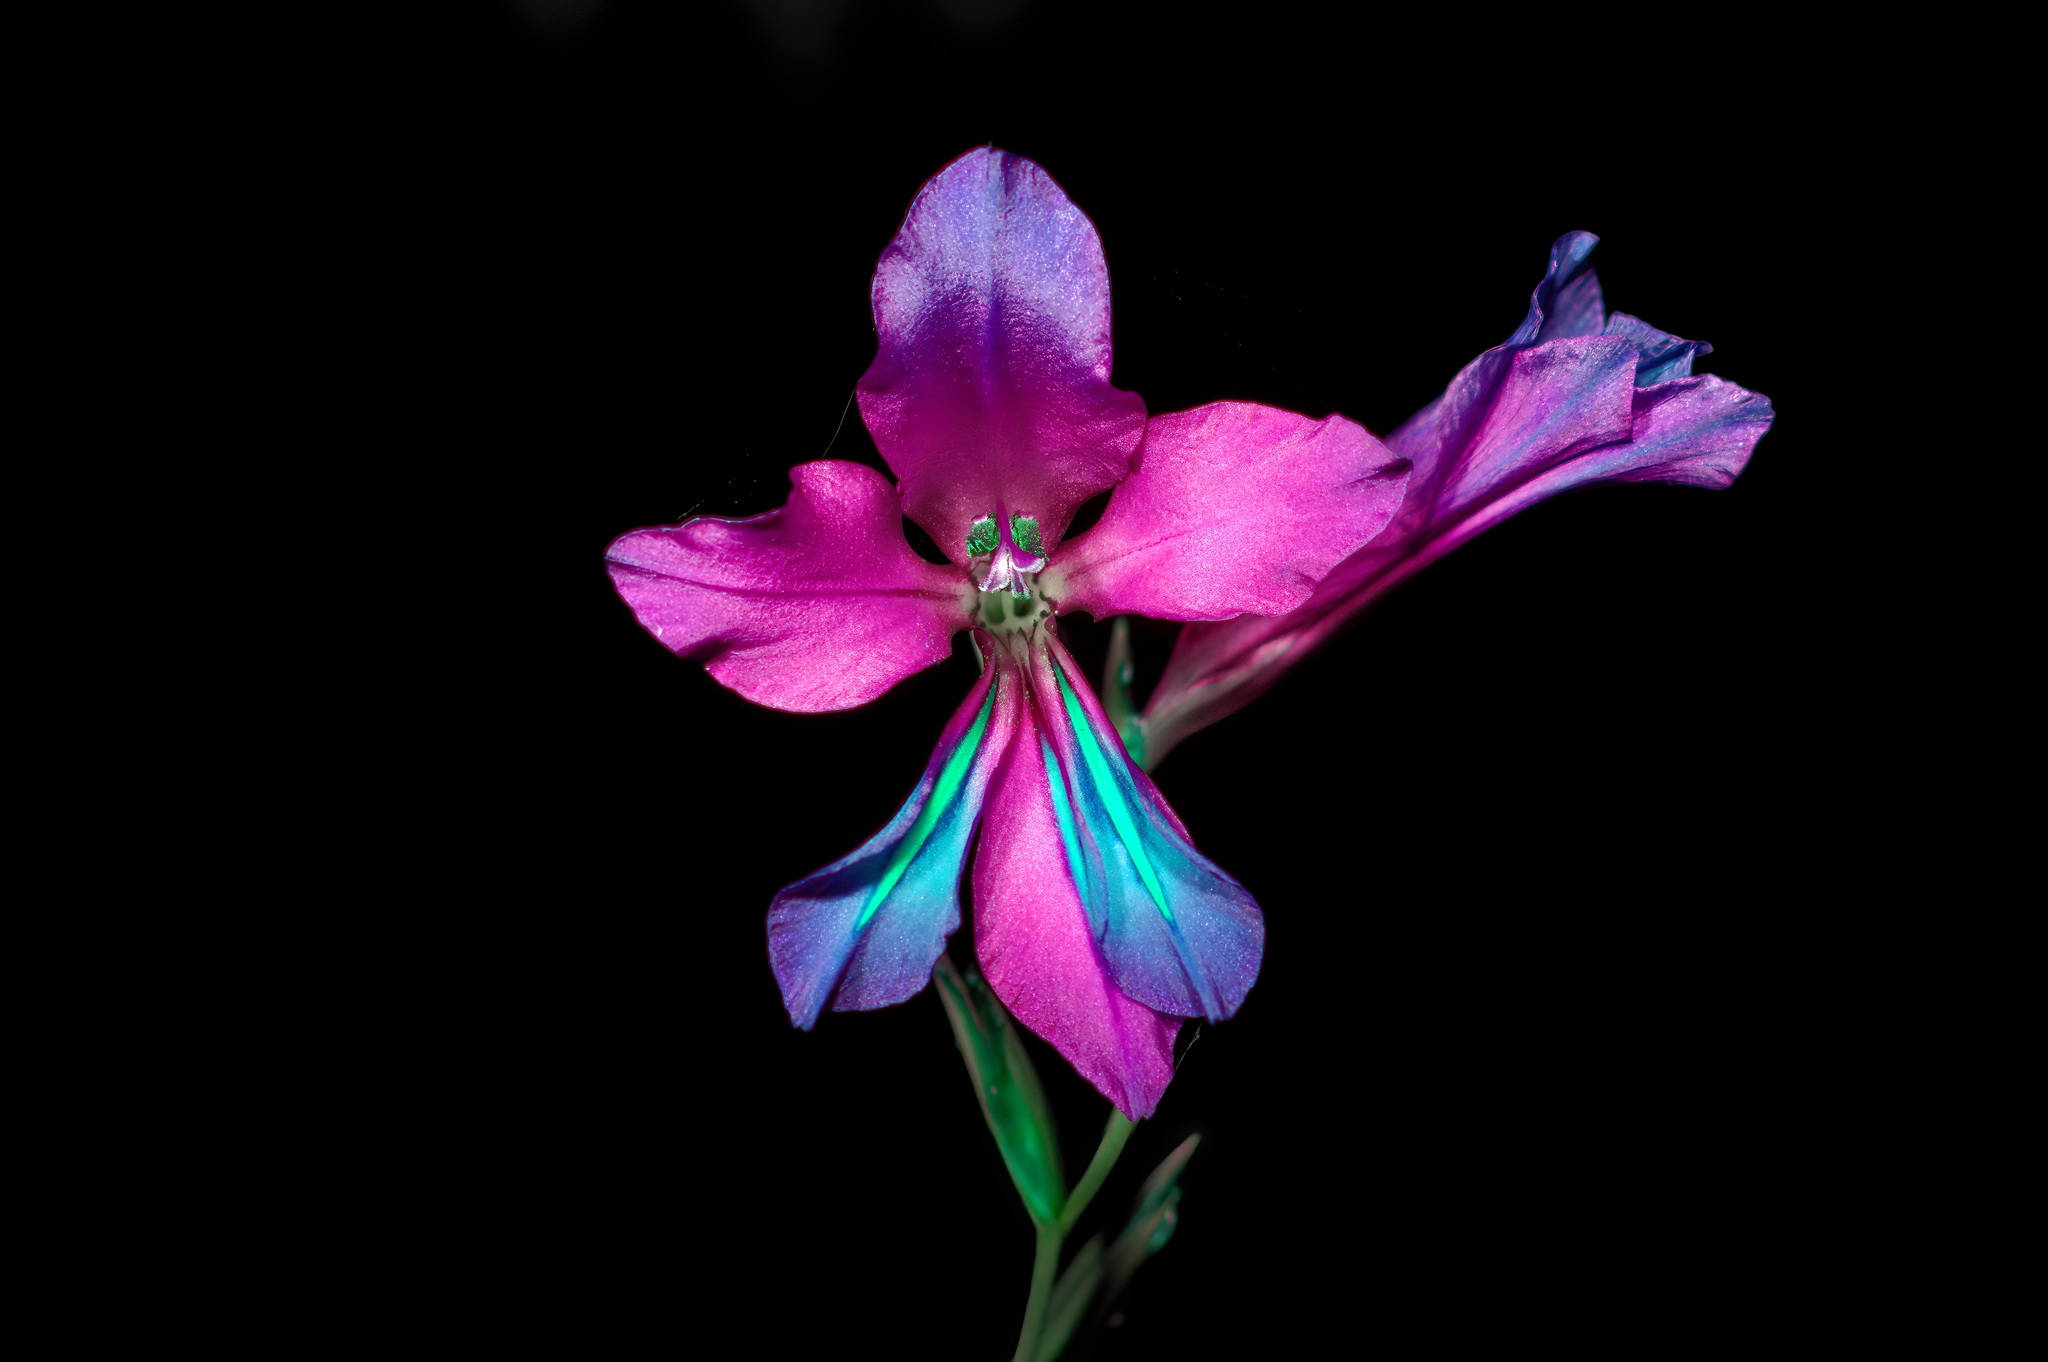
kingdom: Plantae
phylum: Tracheophyta
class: Liliopsida
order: Asparagales
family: Iridaceae
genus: Gladiolus
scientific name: Gladiolus byzantinus
